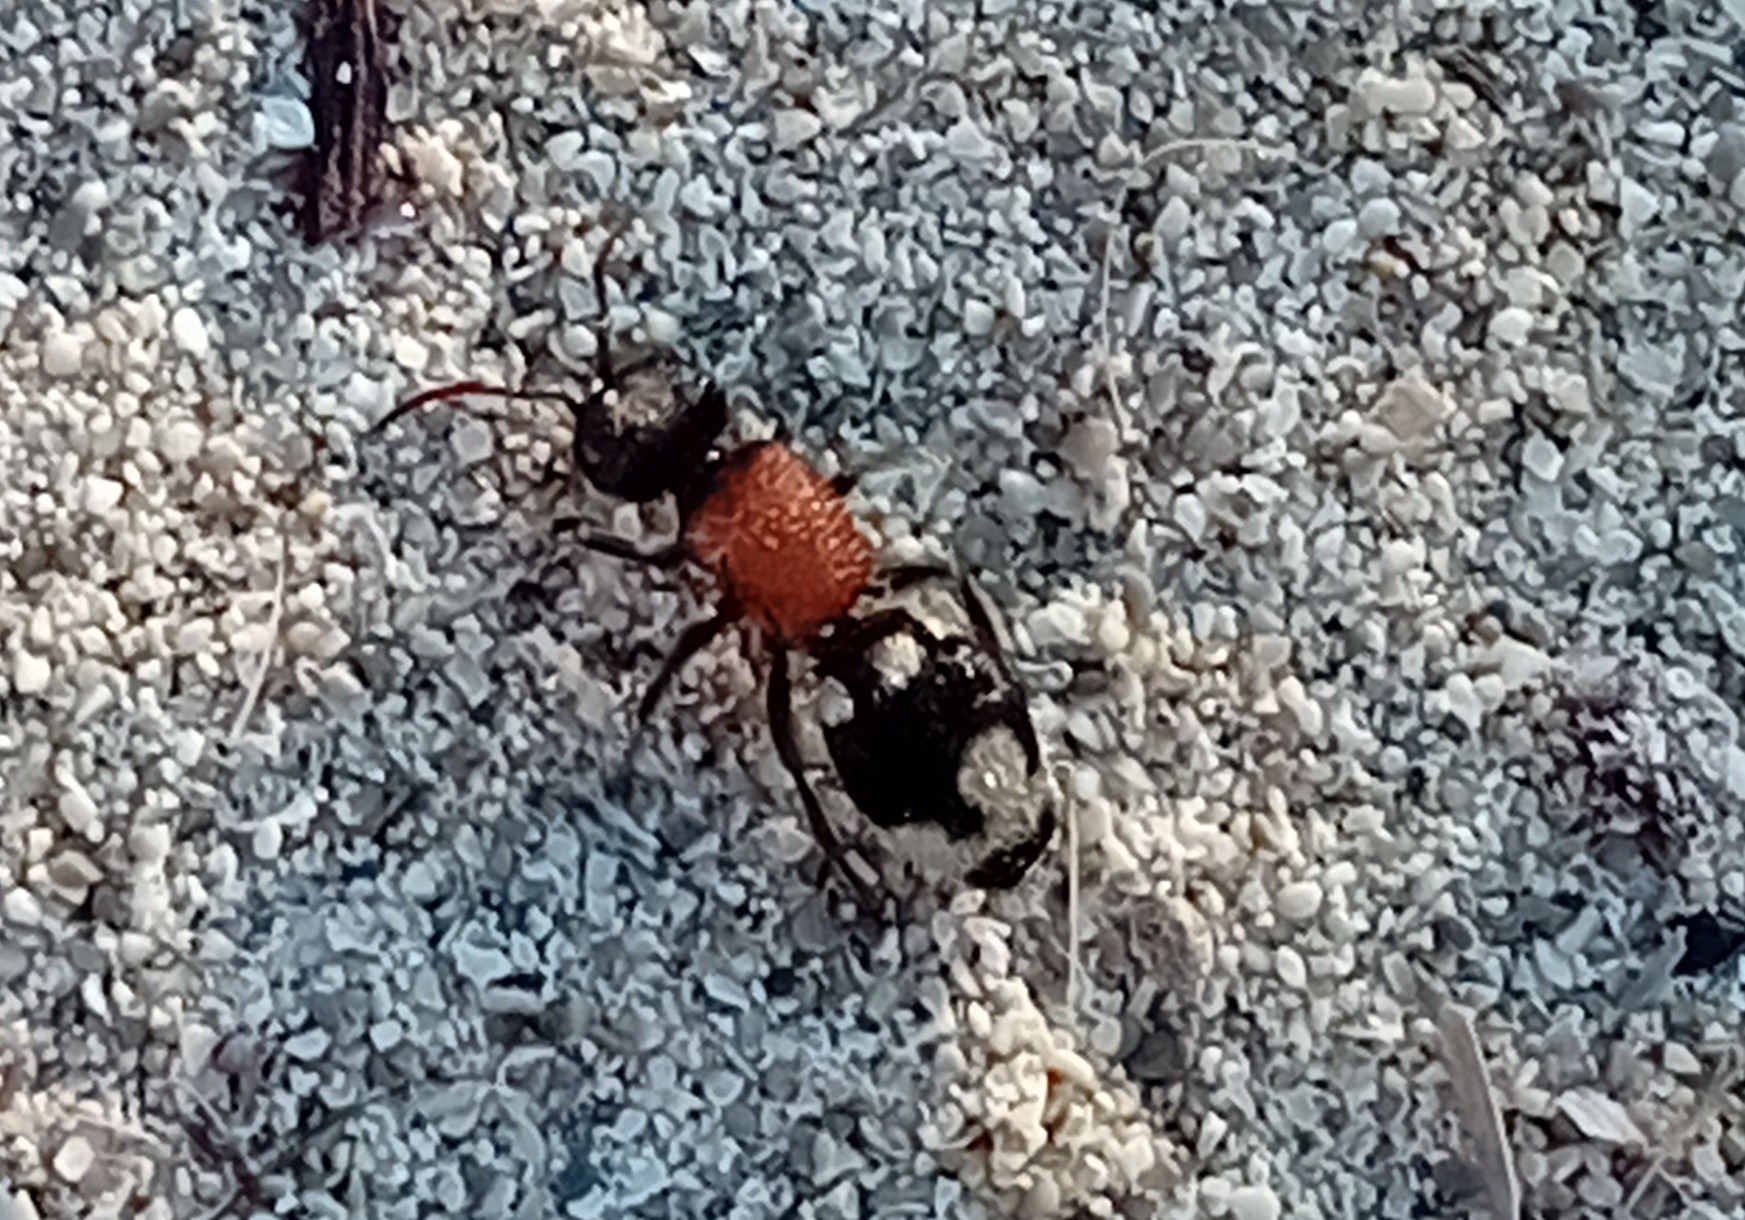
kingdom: Animalia
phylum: Arthropoda
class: Insecta
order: Hymenoptera
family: Mutillidae
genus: Ronisia
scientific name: Ronisia ghilianii
